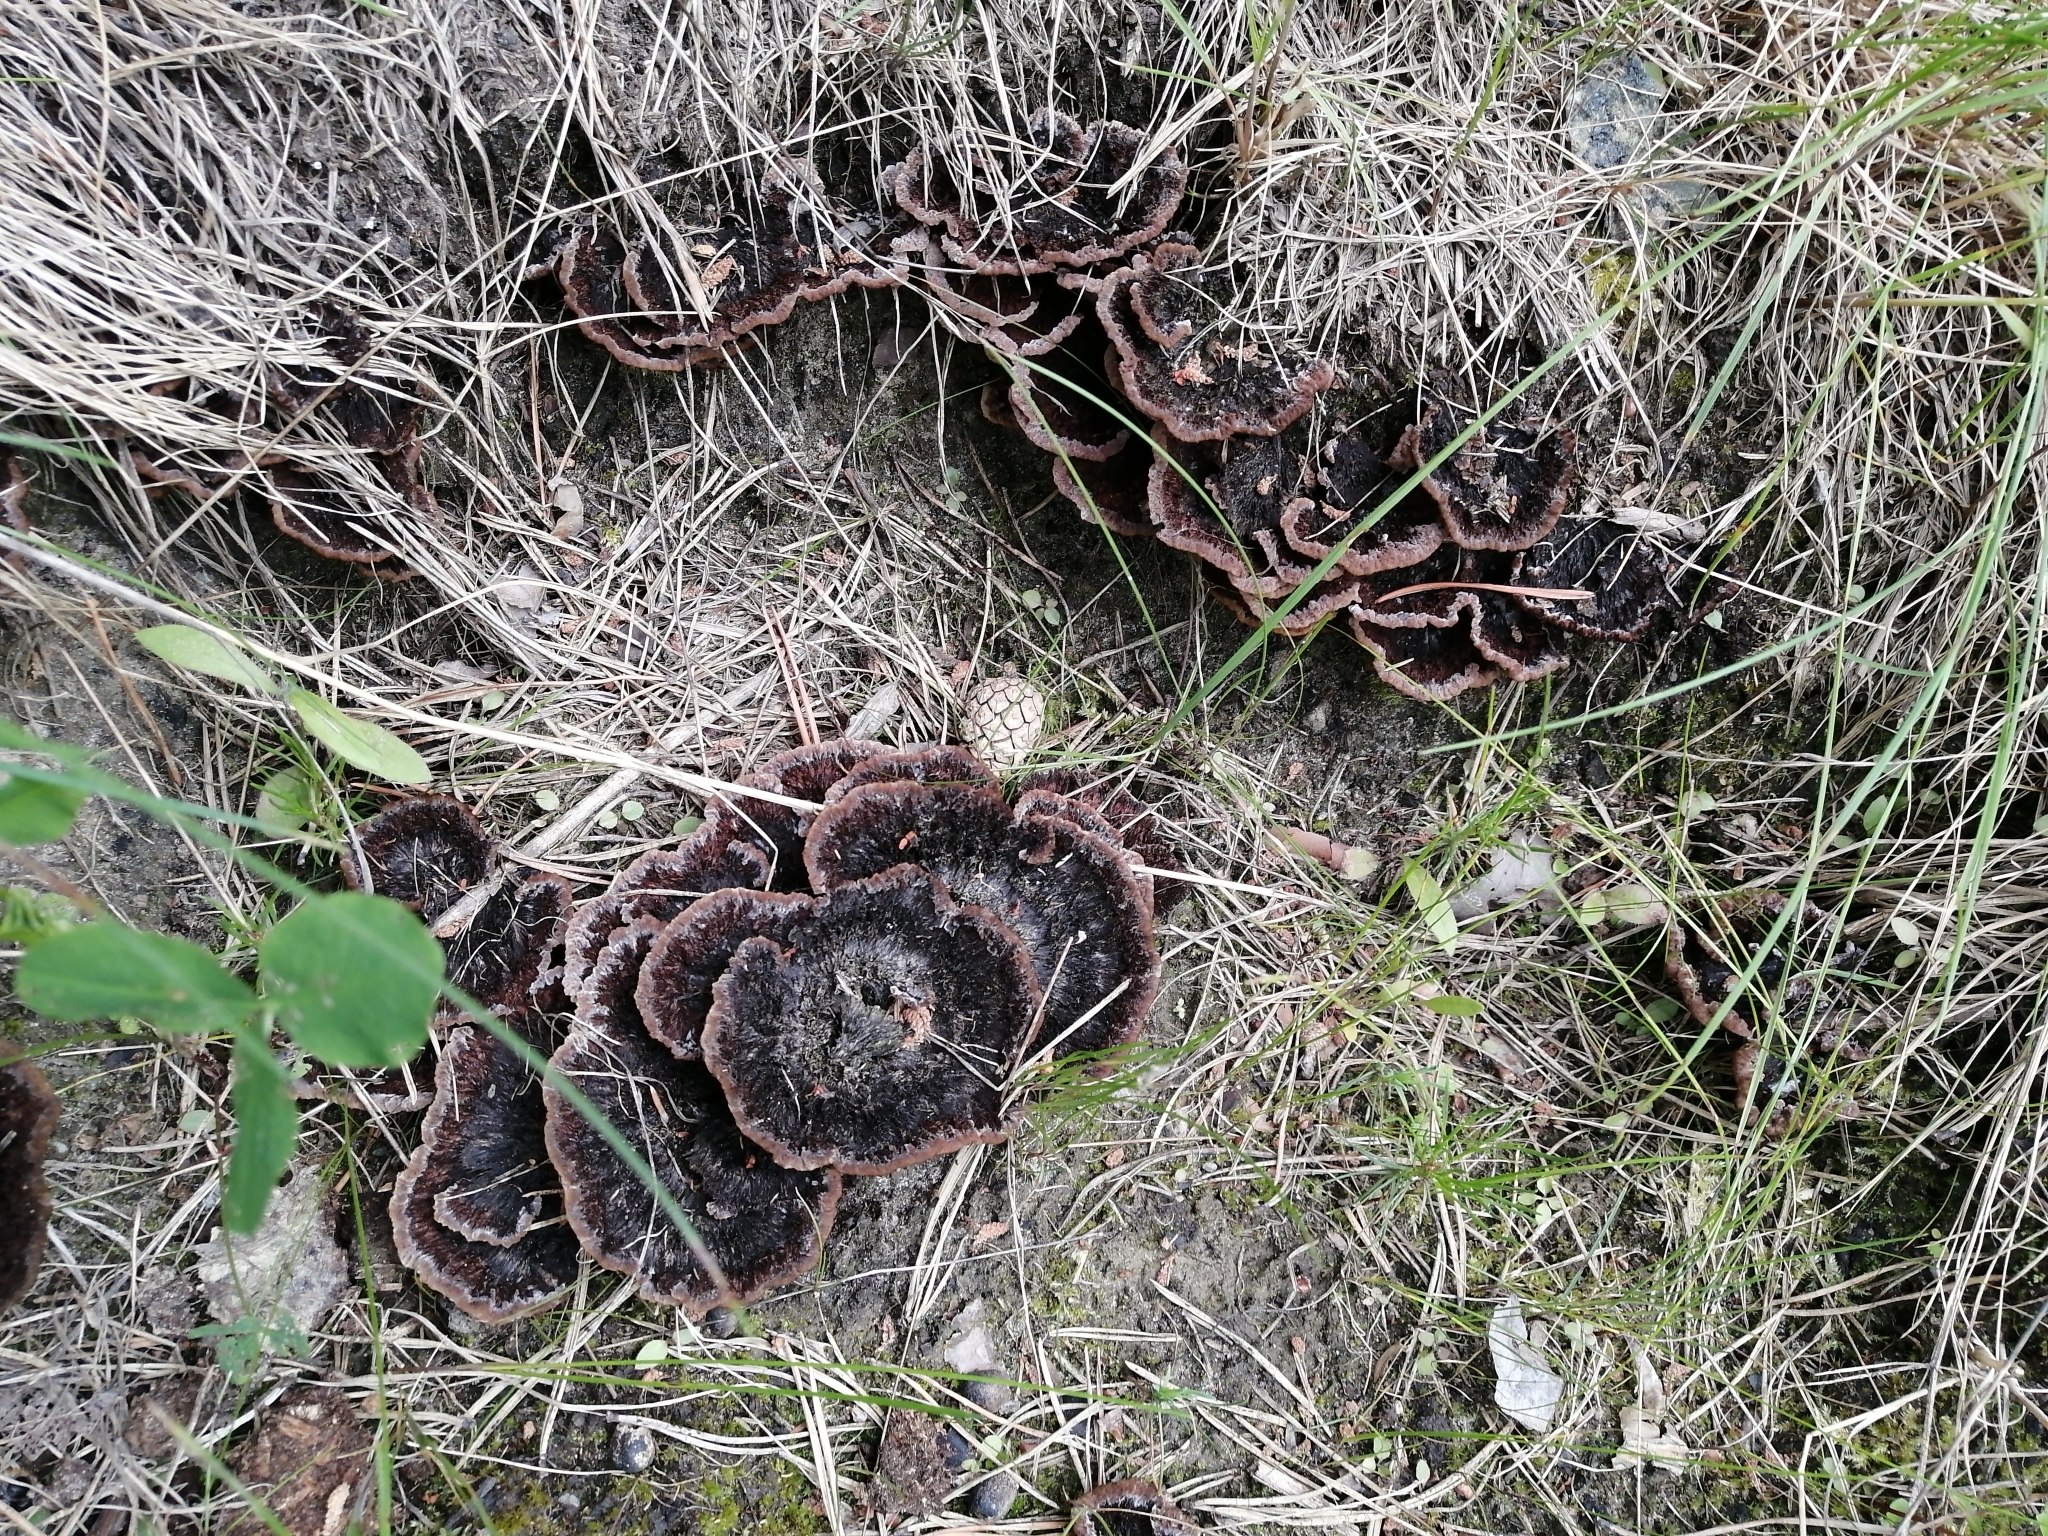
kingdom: Fungi
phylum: Basidiomycota
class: Agaricomycetes
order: Thelephorales
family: Thelephoraceae
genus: Thelephora
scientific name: Thelephora terrestris
